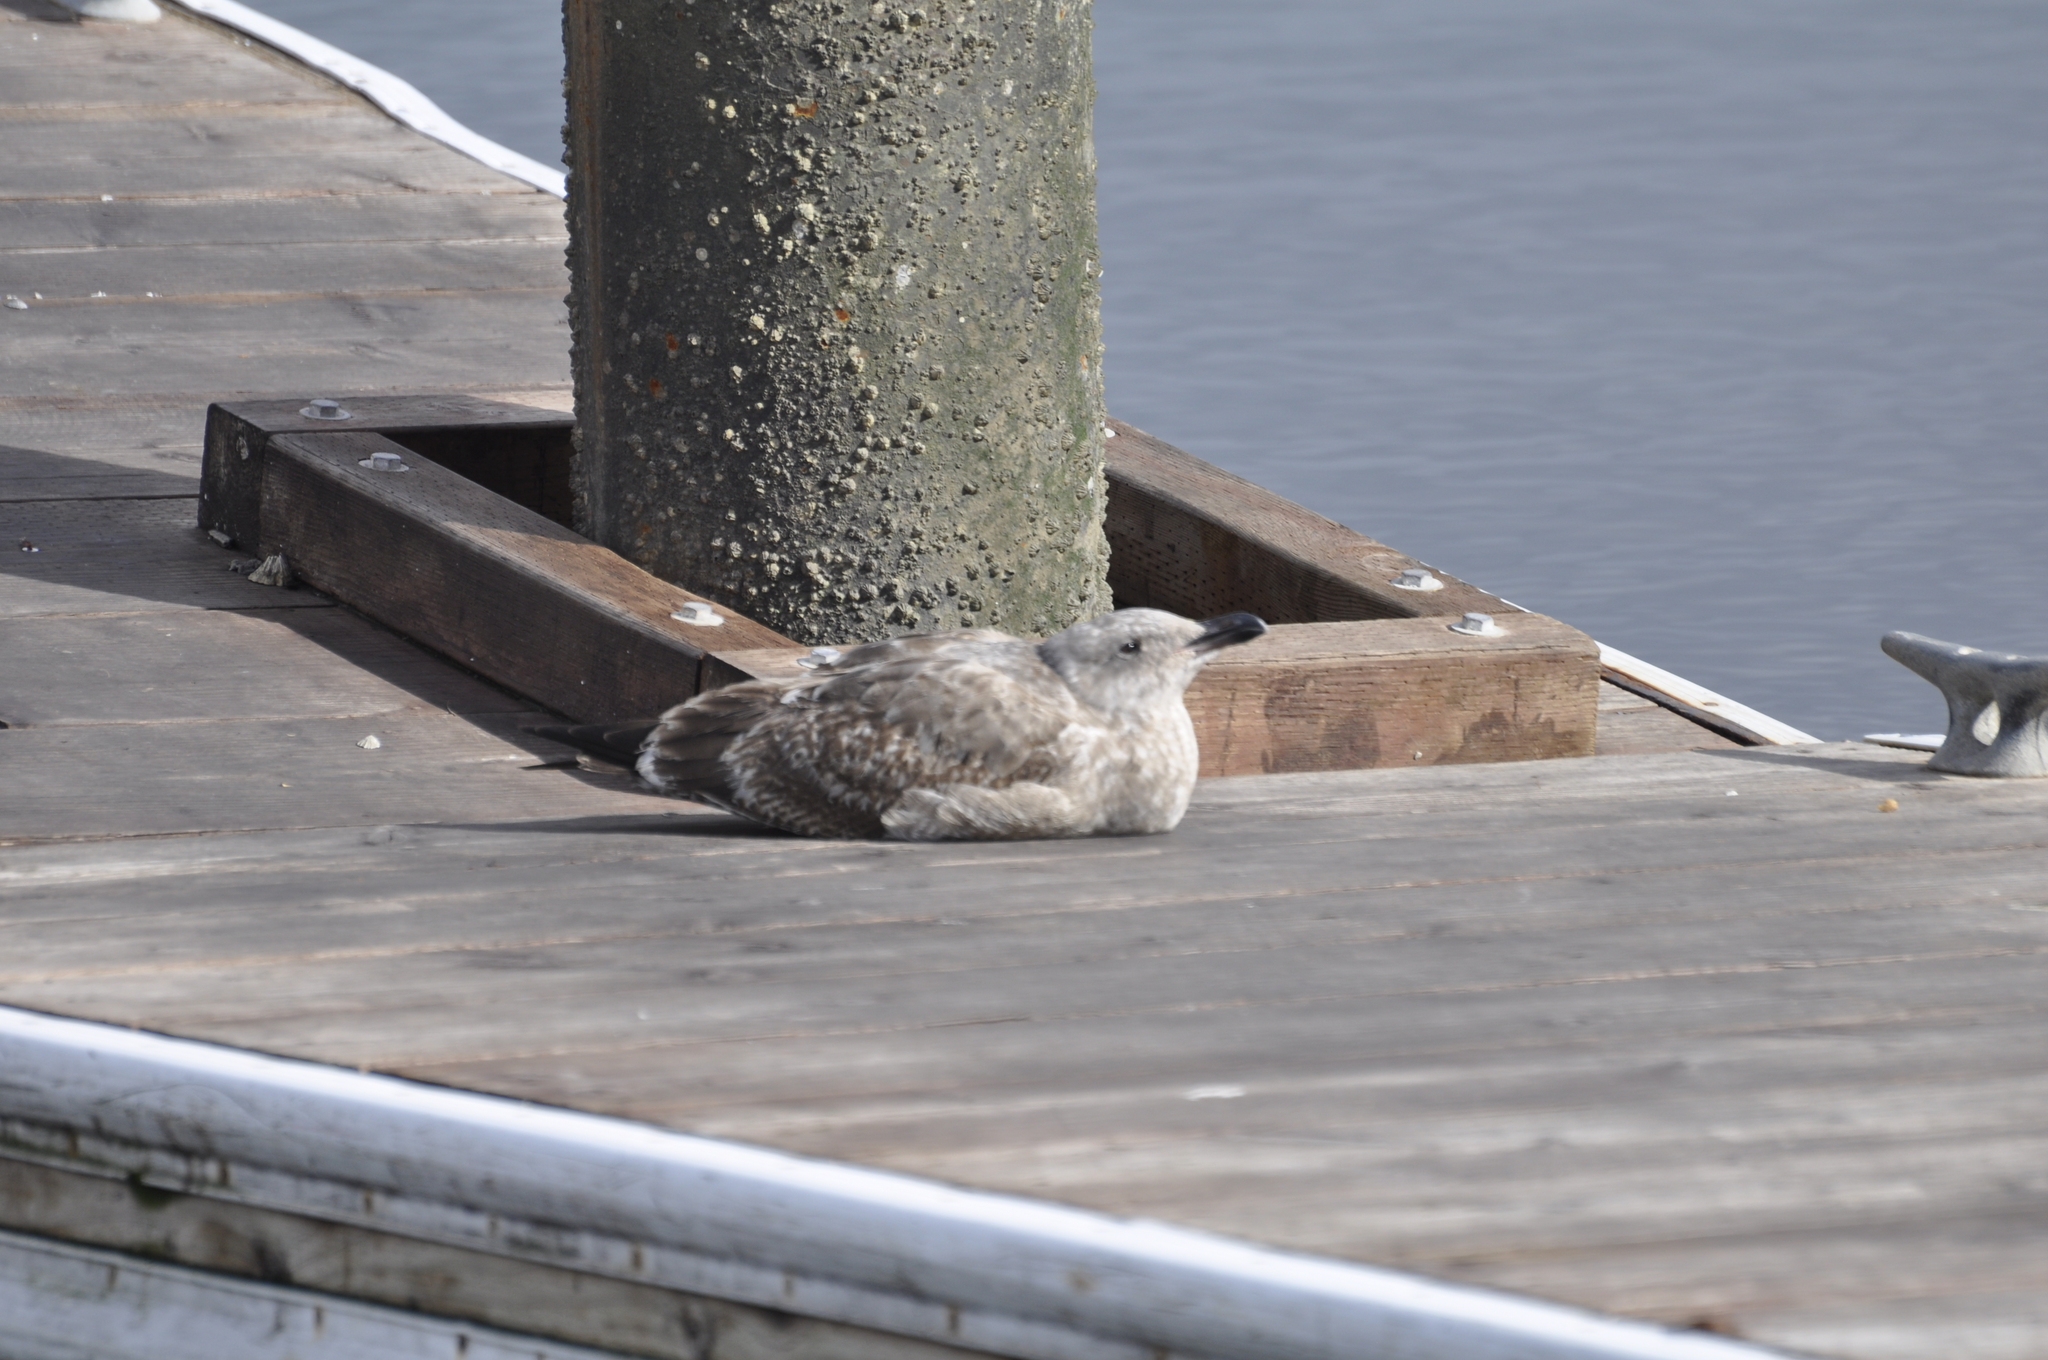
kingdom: Animalia
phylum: Chordata
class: Aves
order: Charadriiformes
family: Laridae
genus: Larus
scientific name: Larus occidentalis
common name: Western gull
